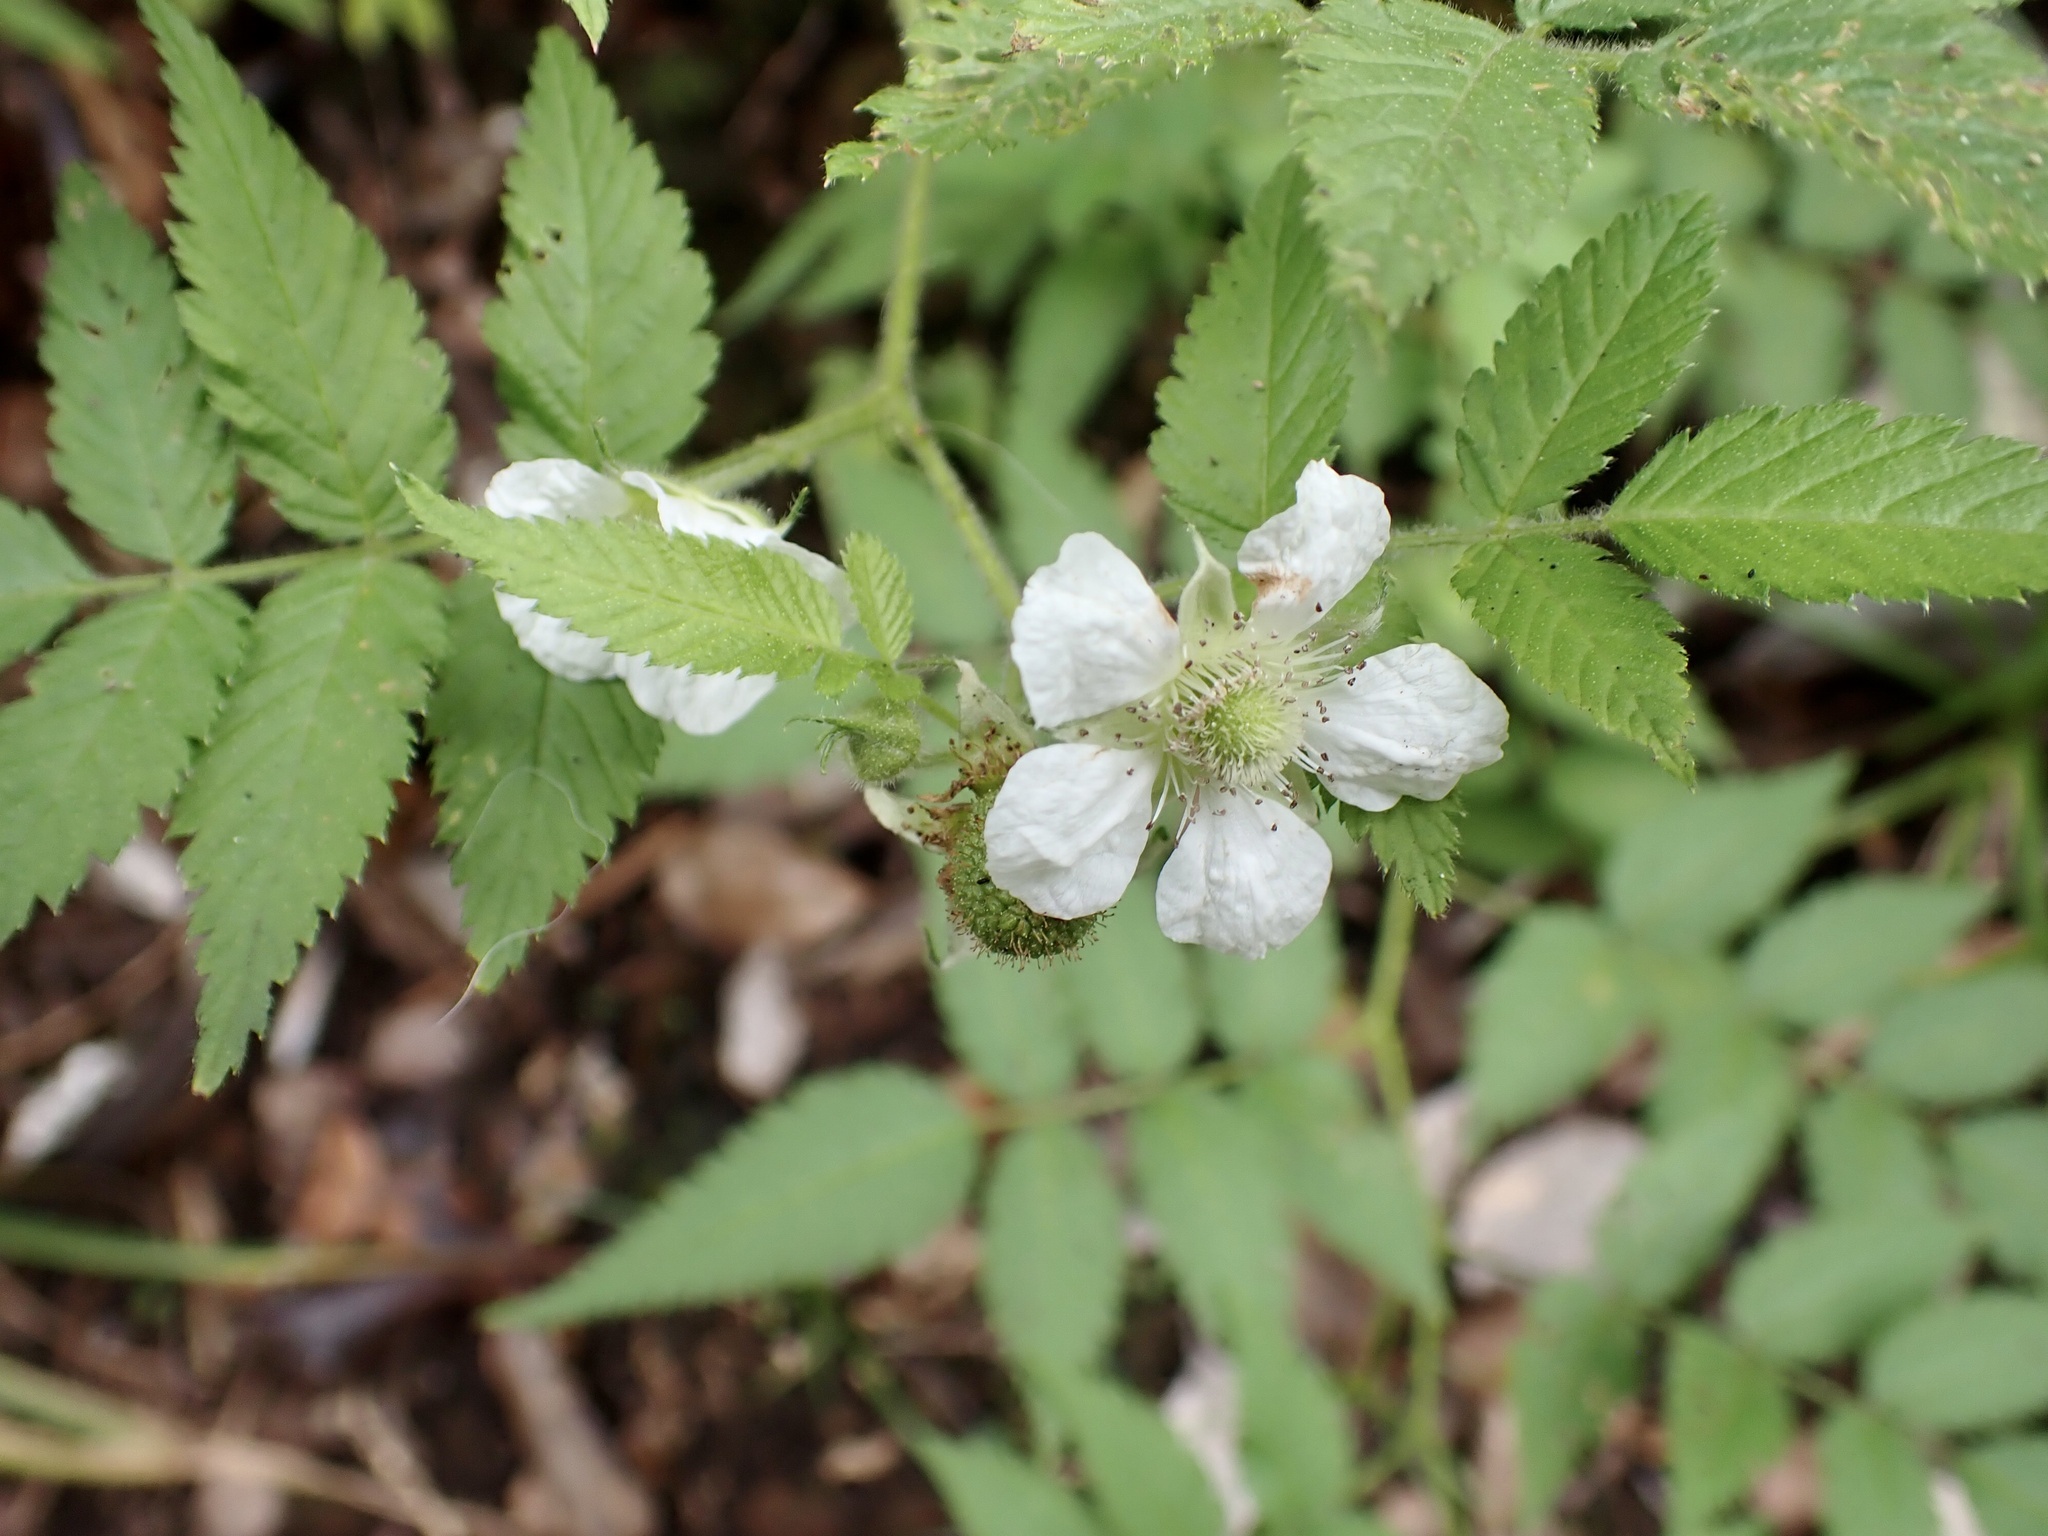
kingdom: Plantae
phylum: Tracheophyta
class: Magnoliopsida
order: Rosales
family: Rosaceae
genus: Rubus
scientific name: Rubus rosifolius
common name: Roseleaf raspberry
